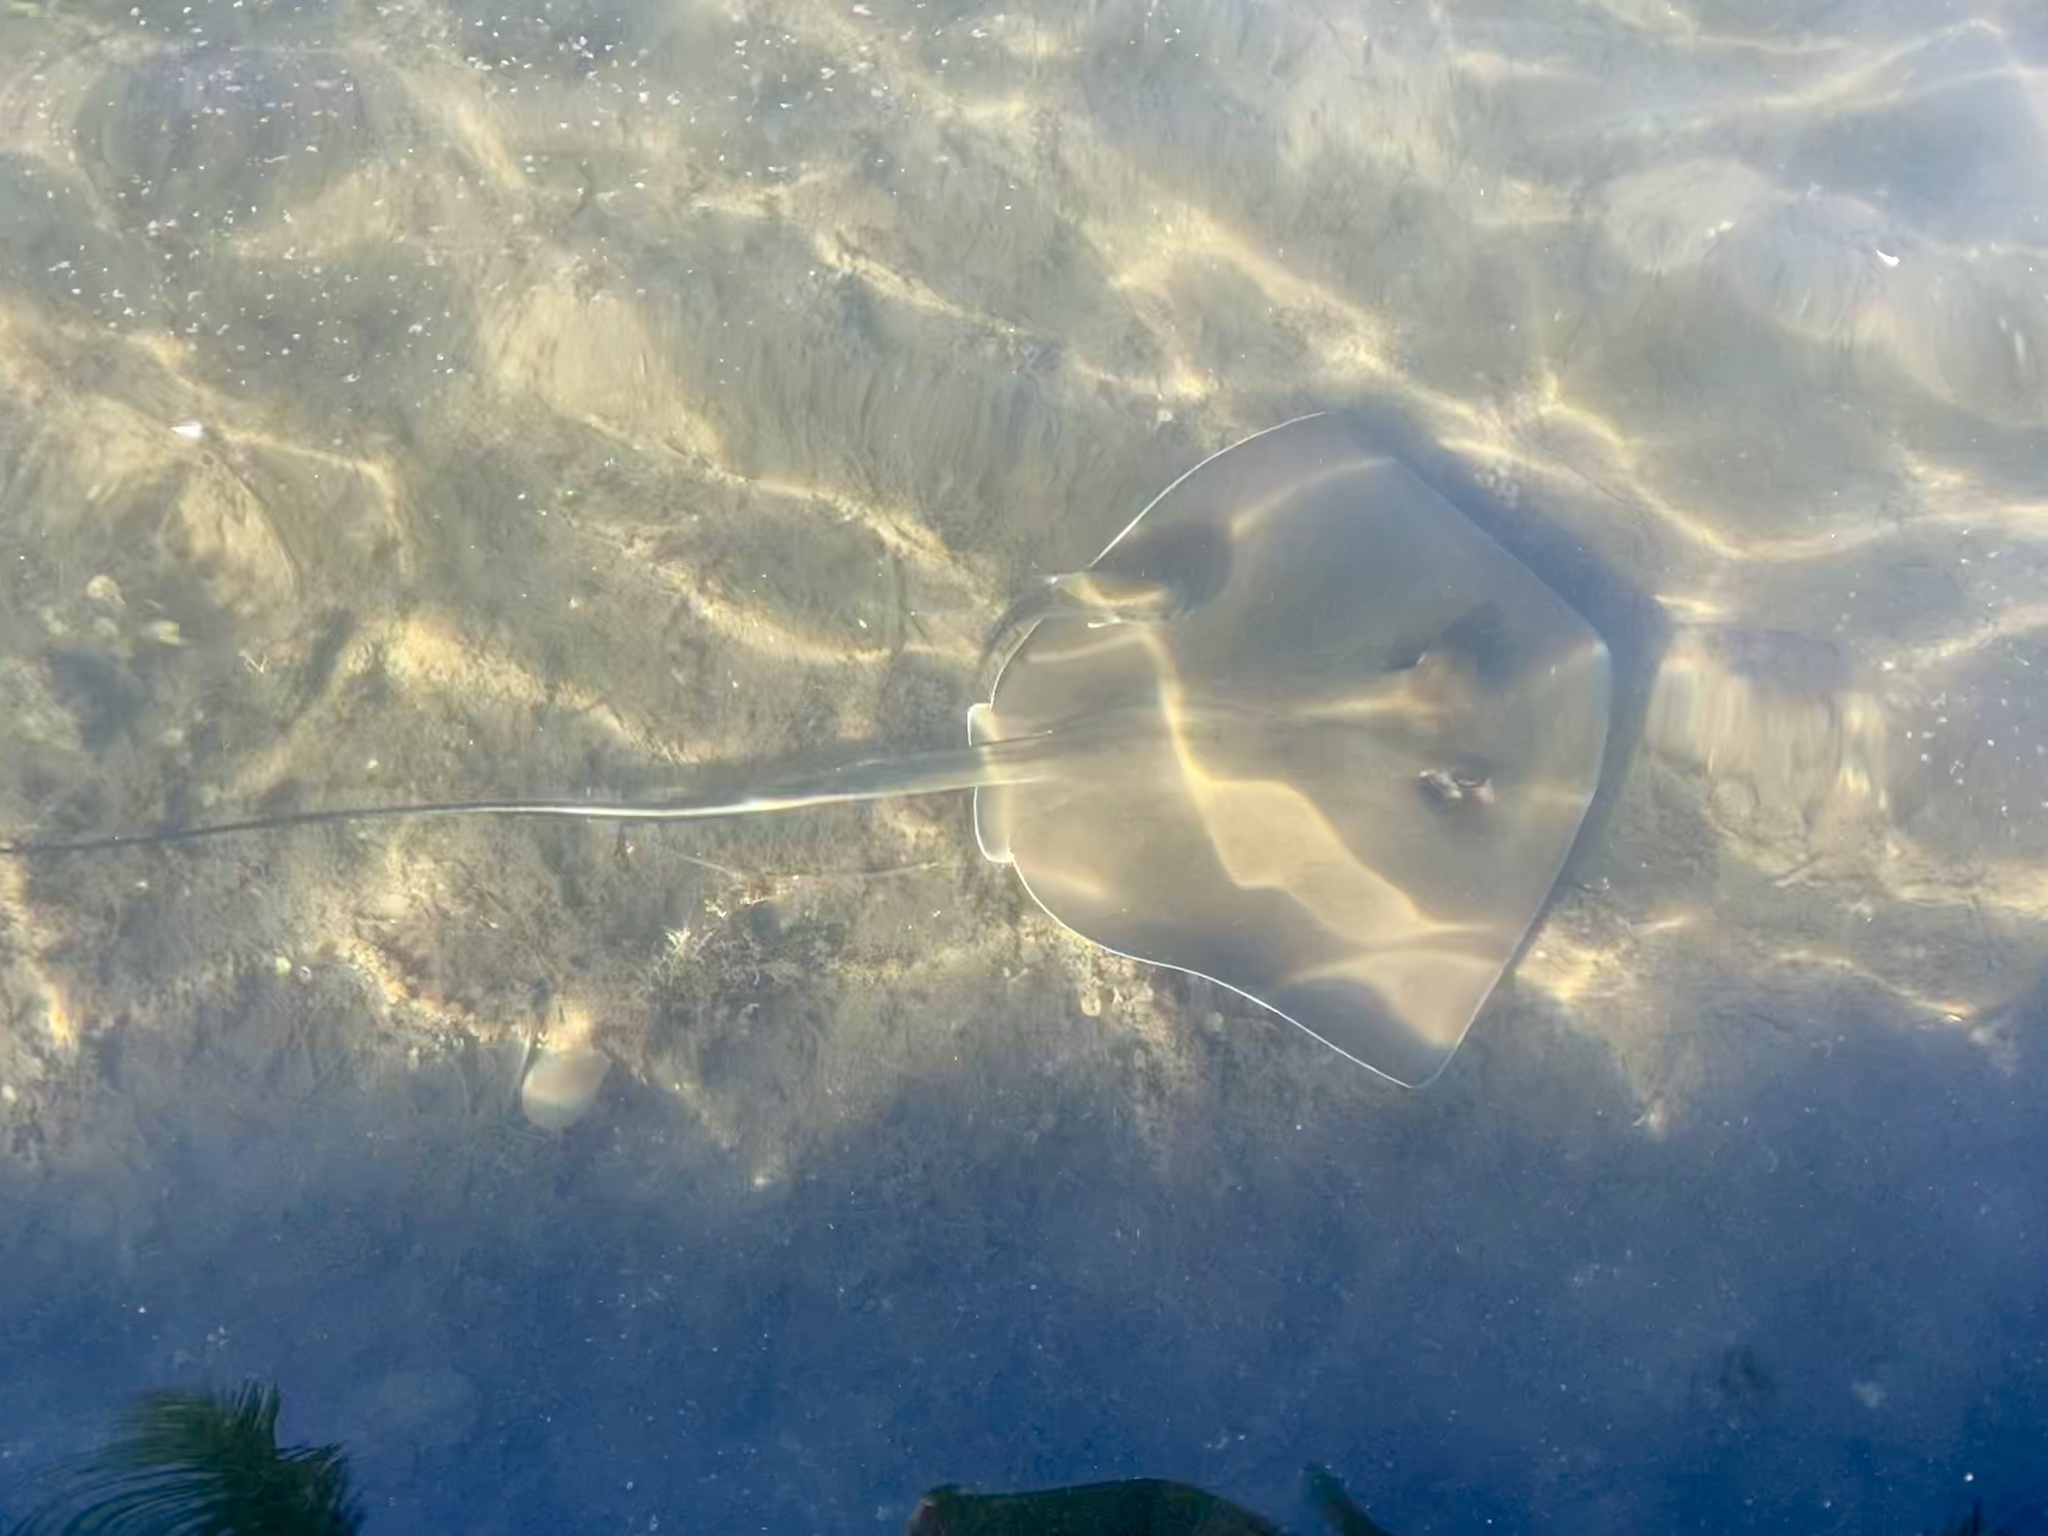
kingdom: Animalia
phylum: Chordata
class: Elasmobranchii
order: Myliobatiformes
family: Dasyatidae
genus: Hypanus
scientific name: Hypanus
